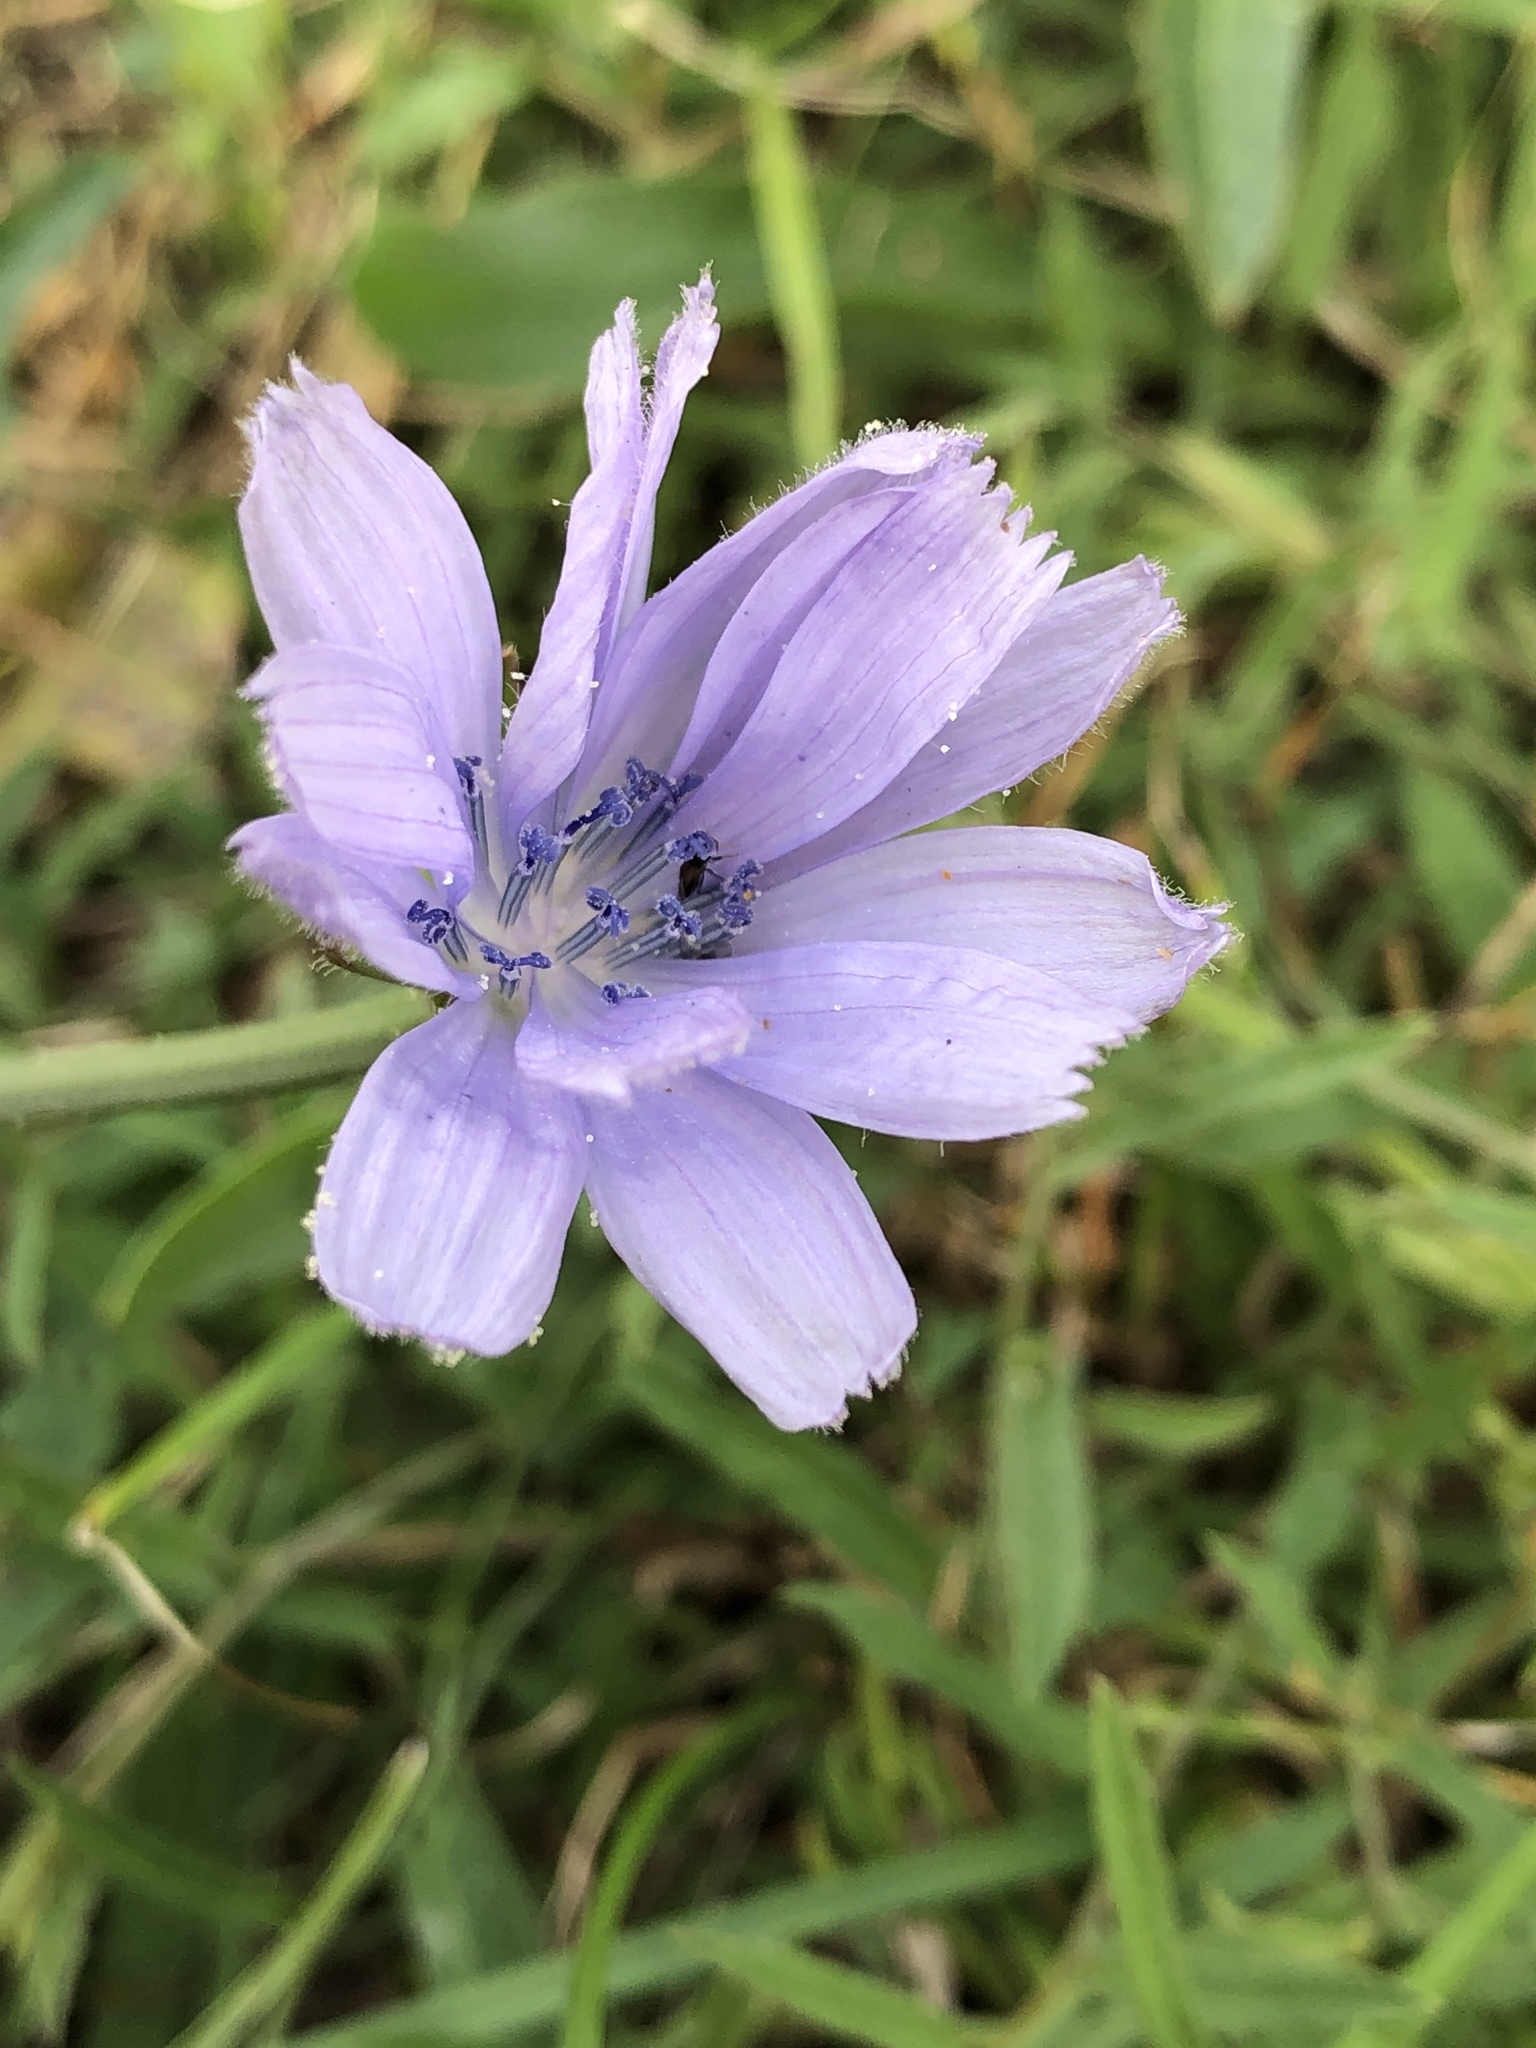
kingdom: Plantae
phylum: Tracheophyta
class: Magnoliopsida
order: Asterales
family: Asteraceae
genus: Cichorium
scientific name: Cichorium intybus
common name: Chicory
